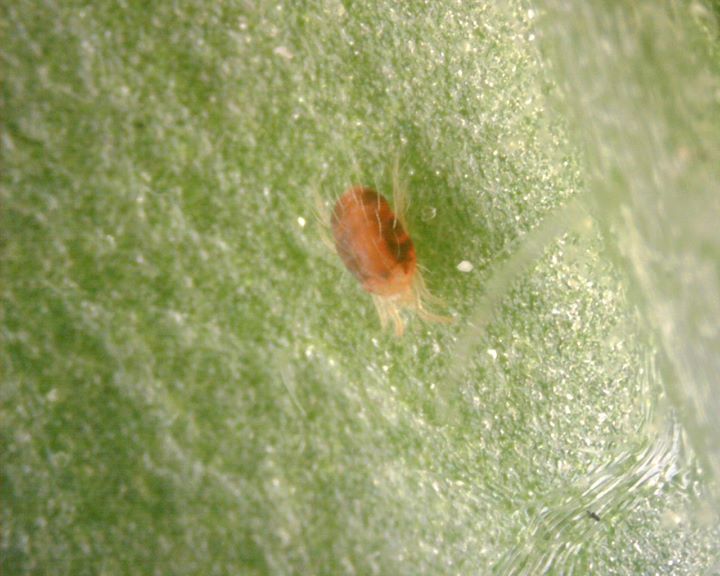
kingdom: Animalia
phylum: Arthropoda
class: Arachnida
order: Trombidiformes
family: Tetranychidae
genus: Tetranychus
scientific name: Tetranychus urticae
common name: Carmine spider mite
